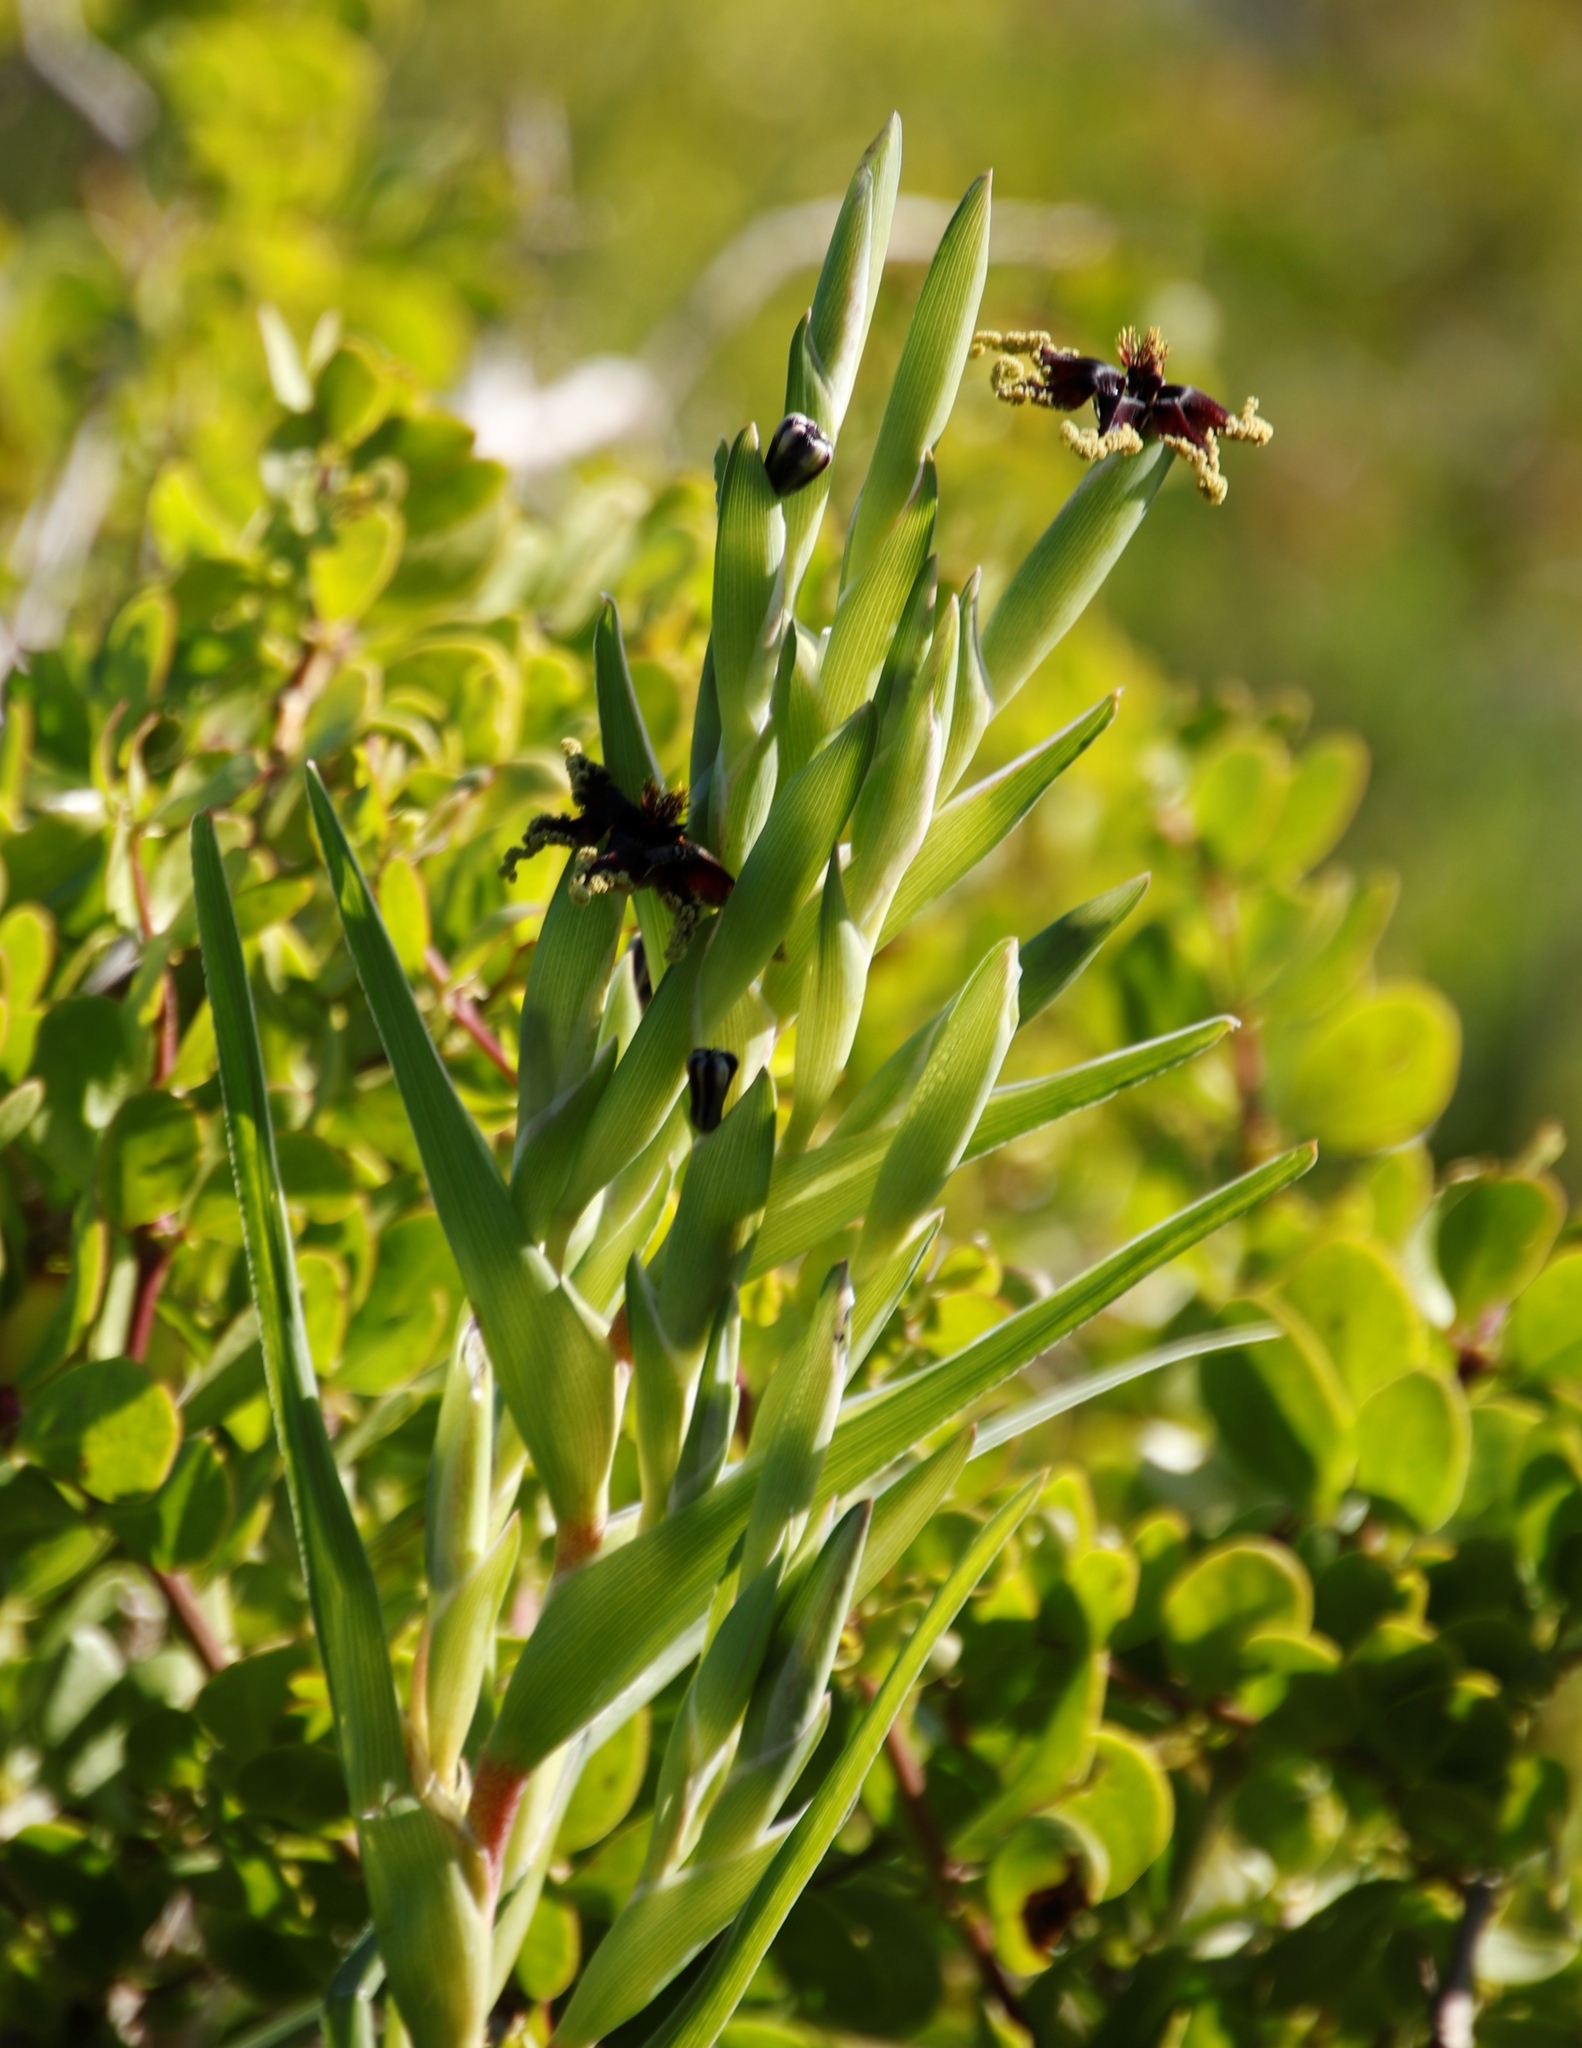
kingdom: Plantae
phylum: Tracheophyta
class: Liliopsida
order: Asparagales
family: Iridaceae
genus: Ferraria
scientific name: Ferraria crispa
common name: Black-flag
